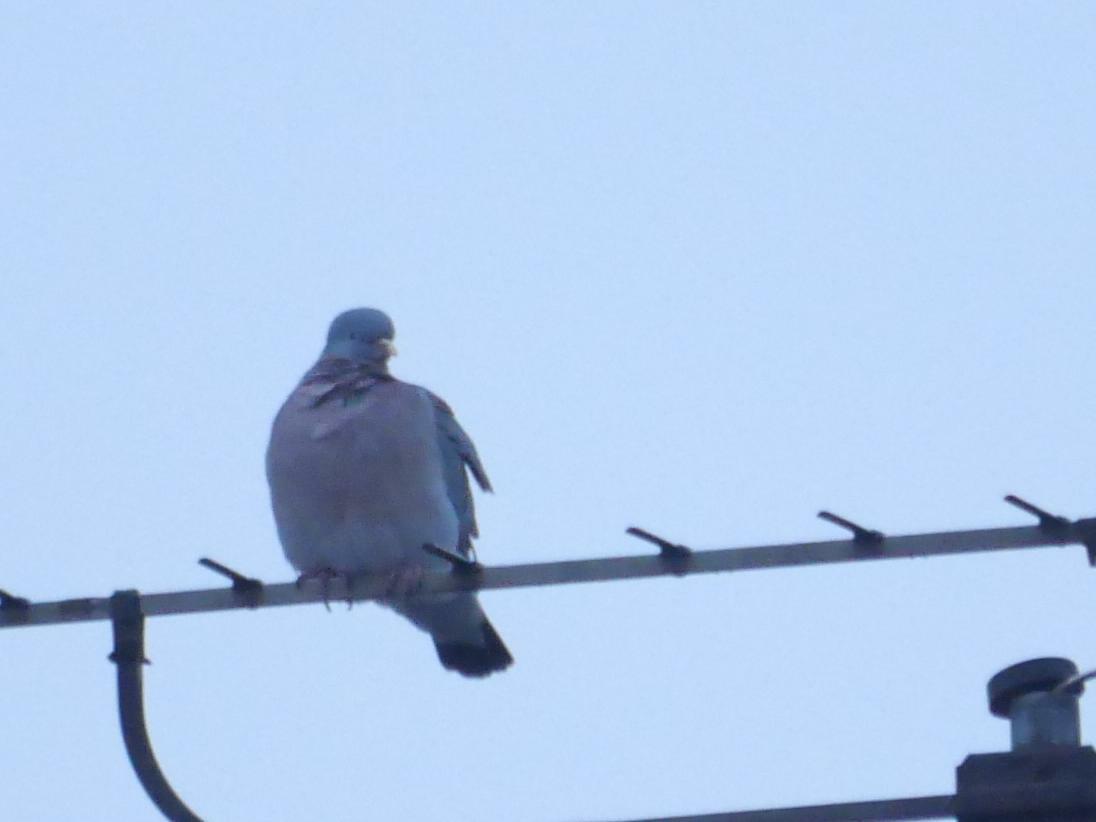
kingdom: Animalia
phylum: Chordata
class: Aves
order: Columbiformes
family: Columbidae
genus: Columba
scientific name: Columba palumbus
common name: Common wood pigeon
